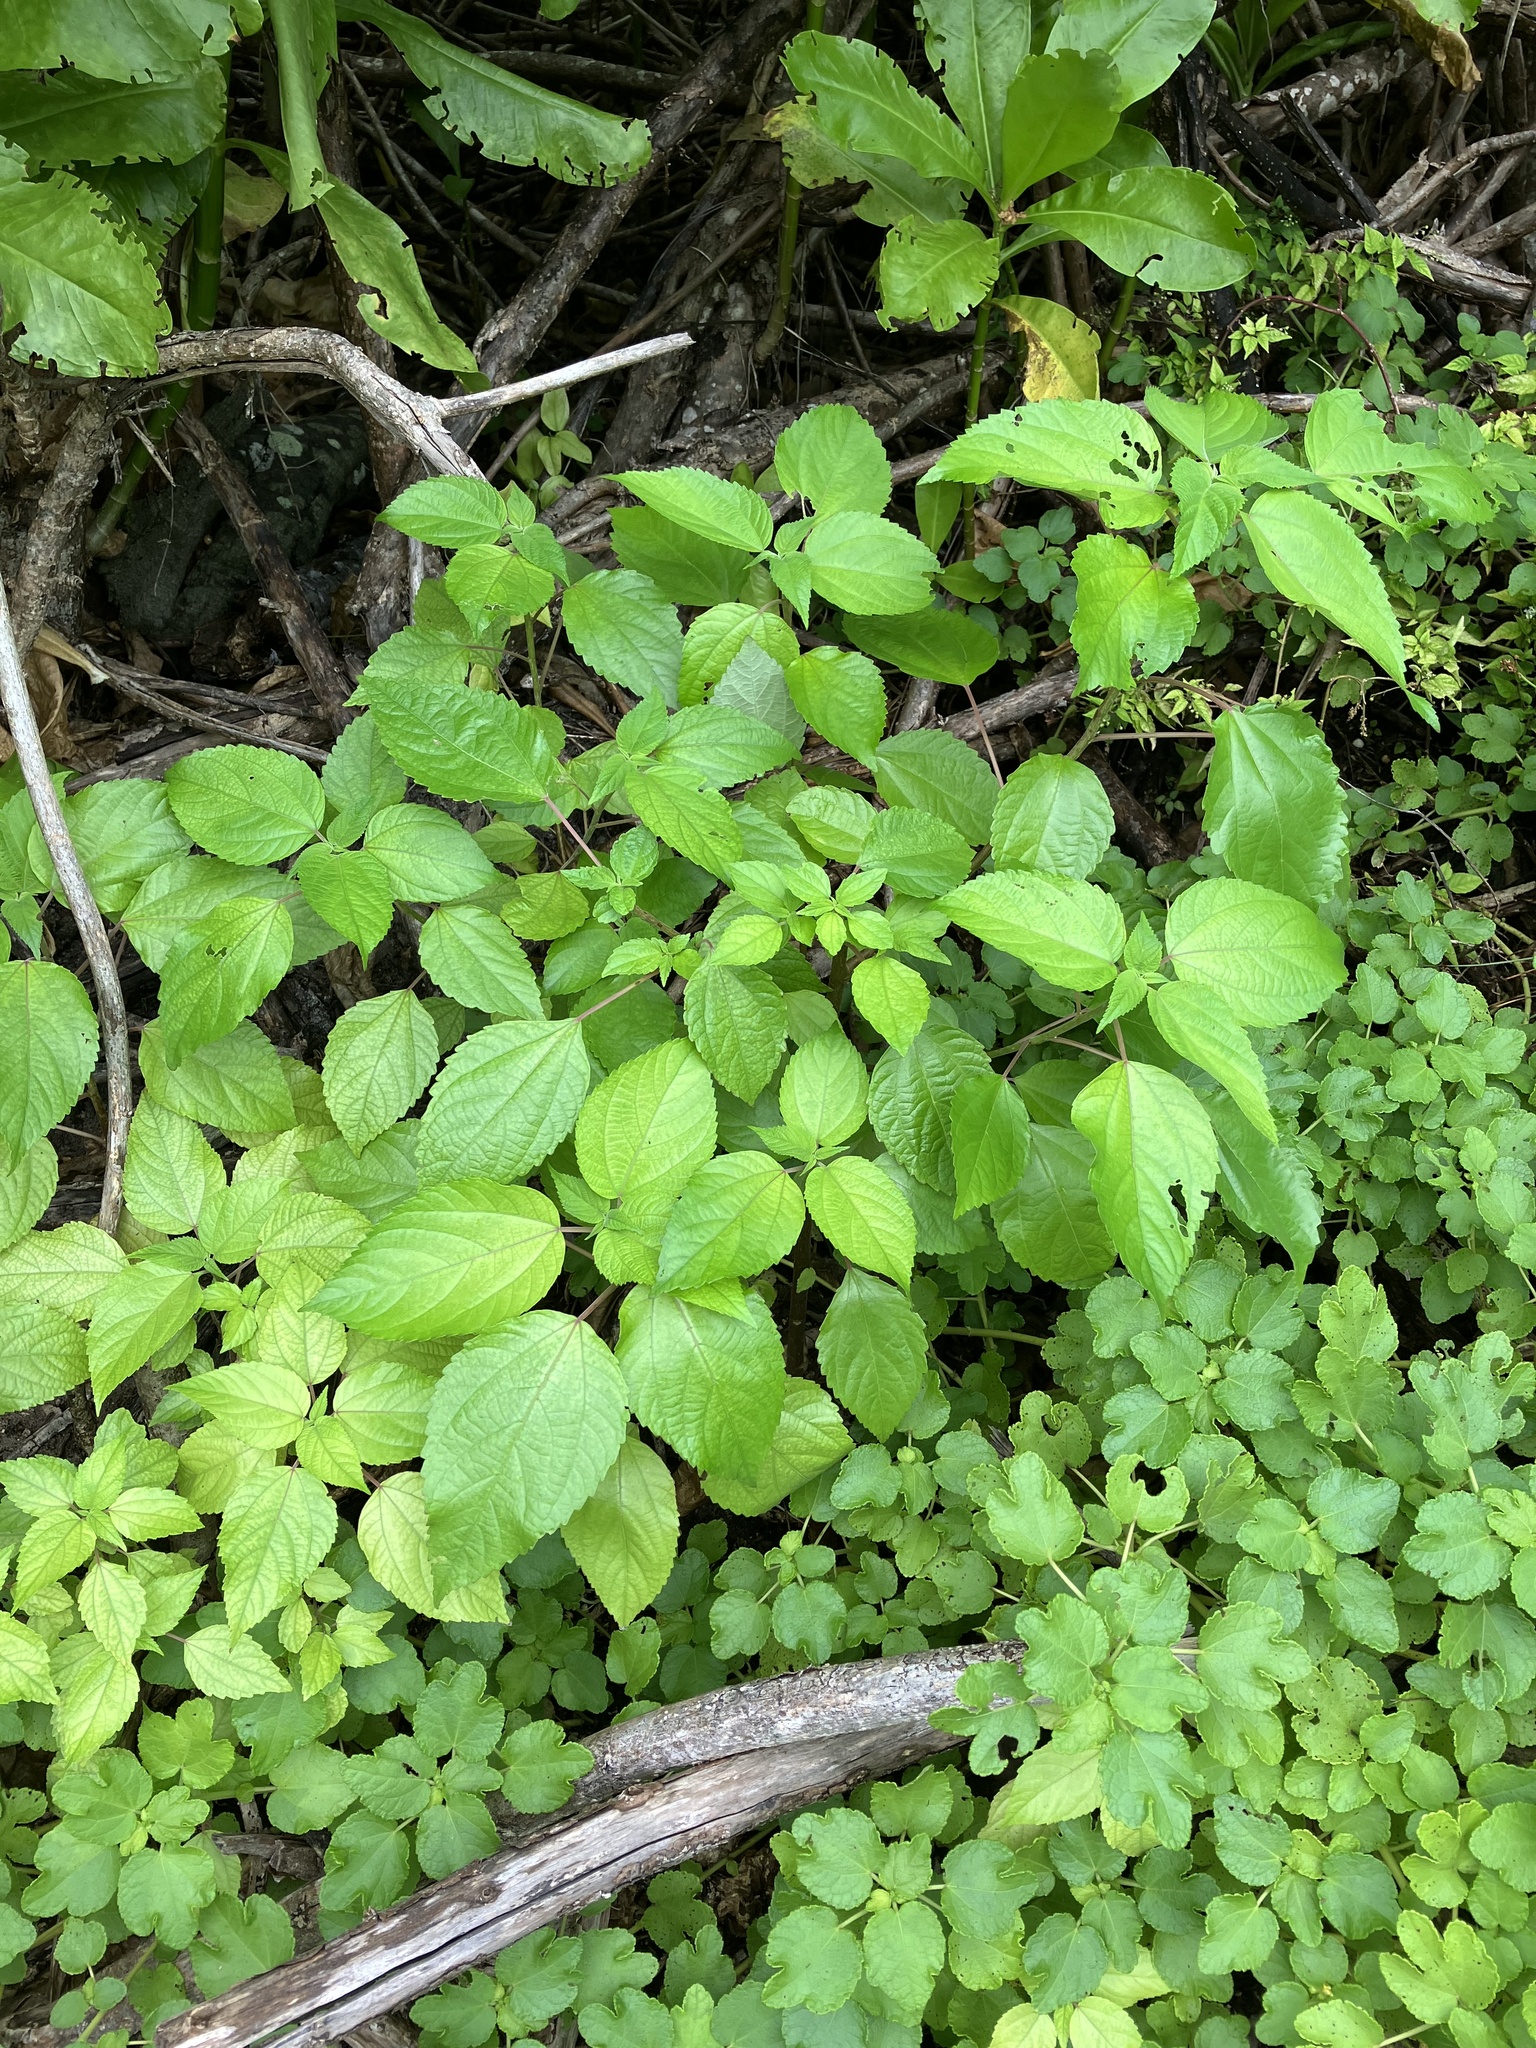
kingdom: Plantae
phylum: Tracheophyta
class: Magnoliopsida
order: Rosales
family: Urticaceae
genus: Pipturus
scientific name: Pipturus argenteus
